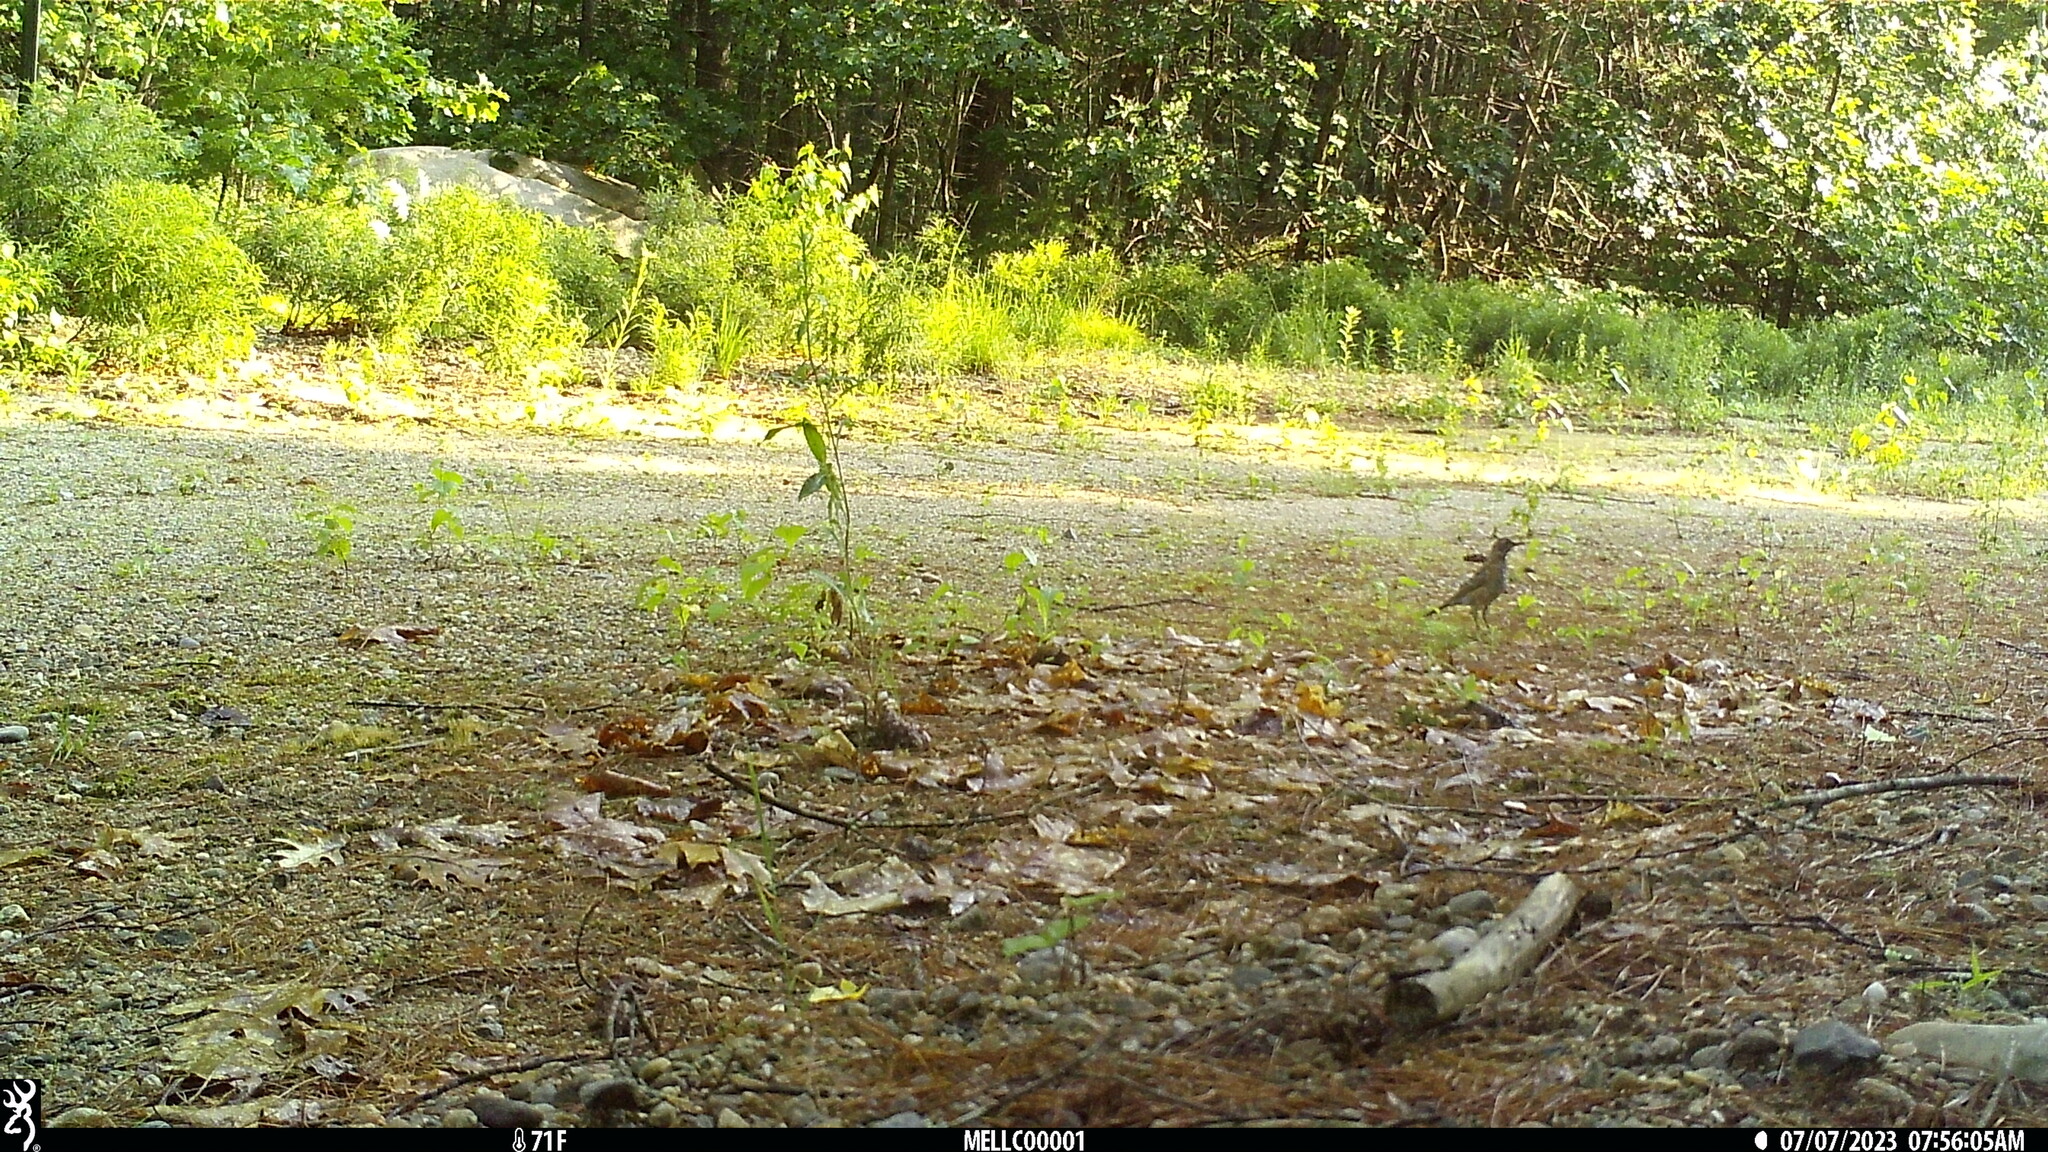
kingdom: Animalia
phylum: Chordata
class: Aves
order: Passeriformes
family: Turdidae
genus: Turdus
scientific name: Turdus migratorius
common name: American robin
